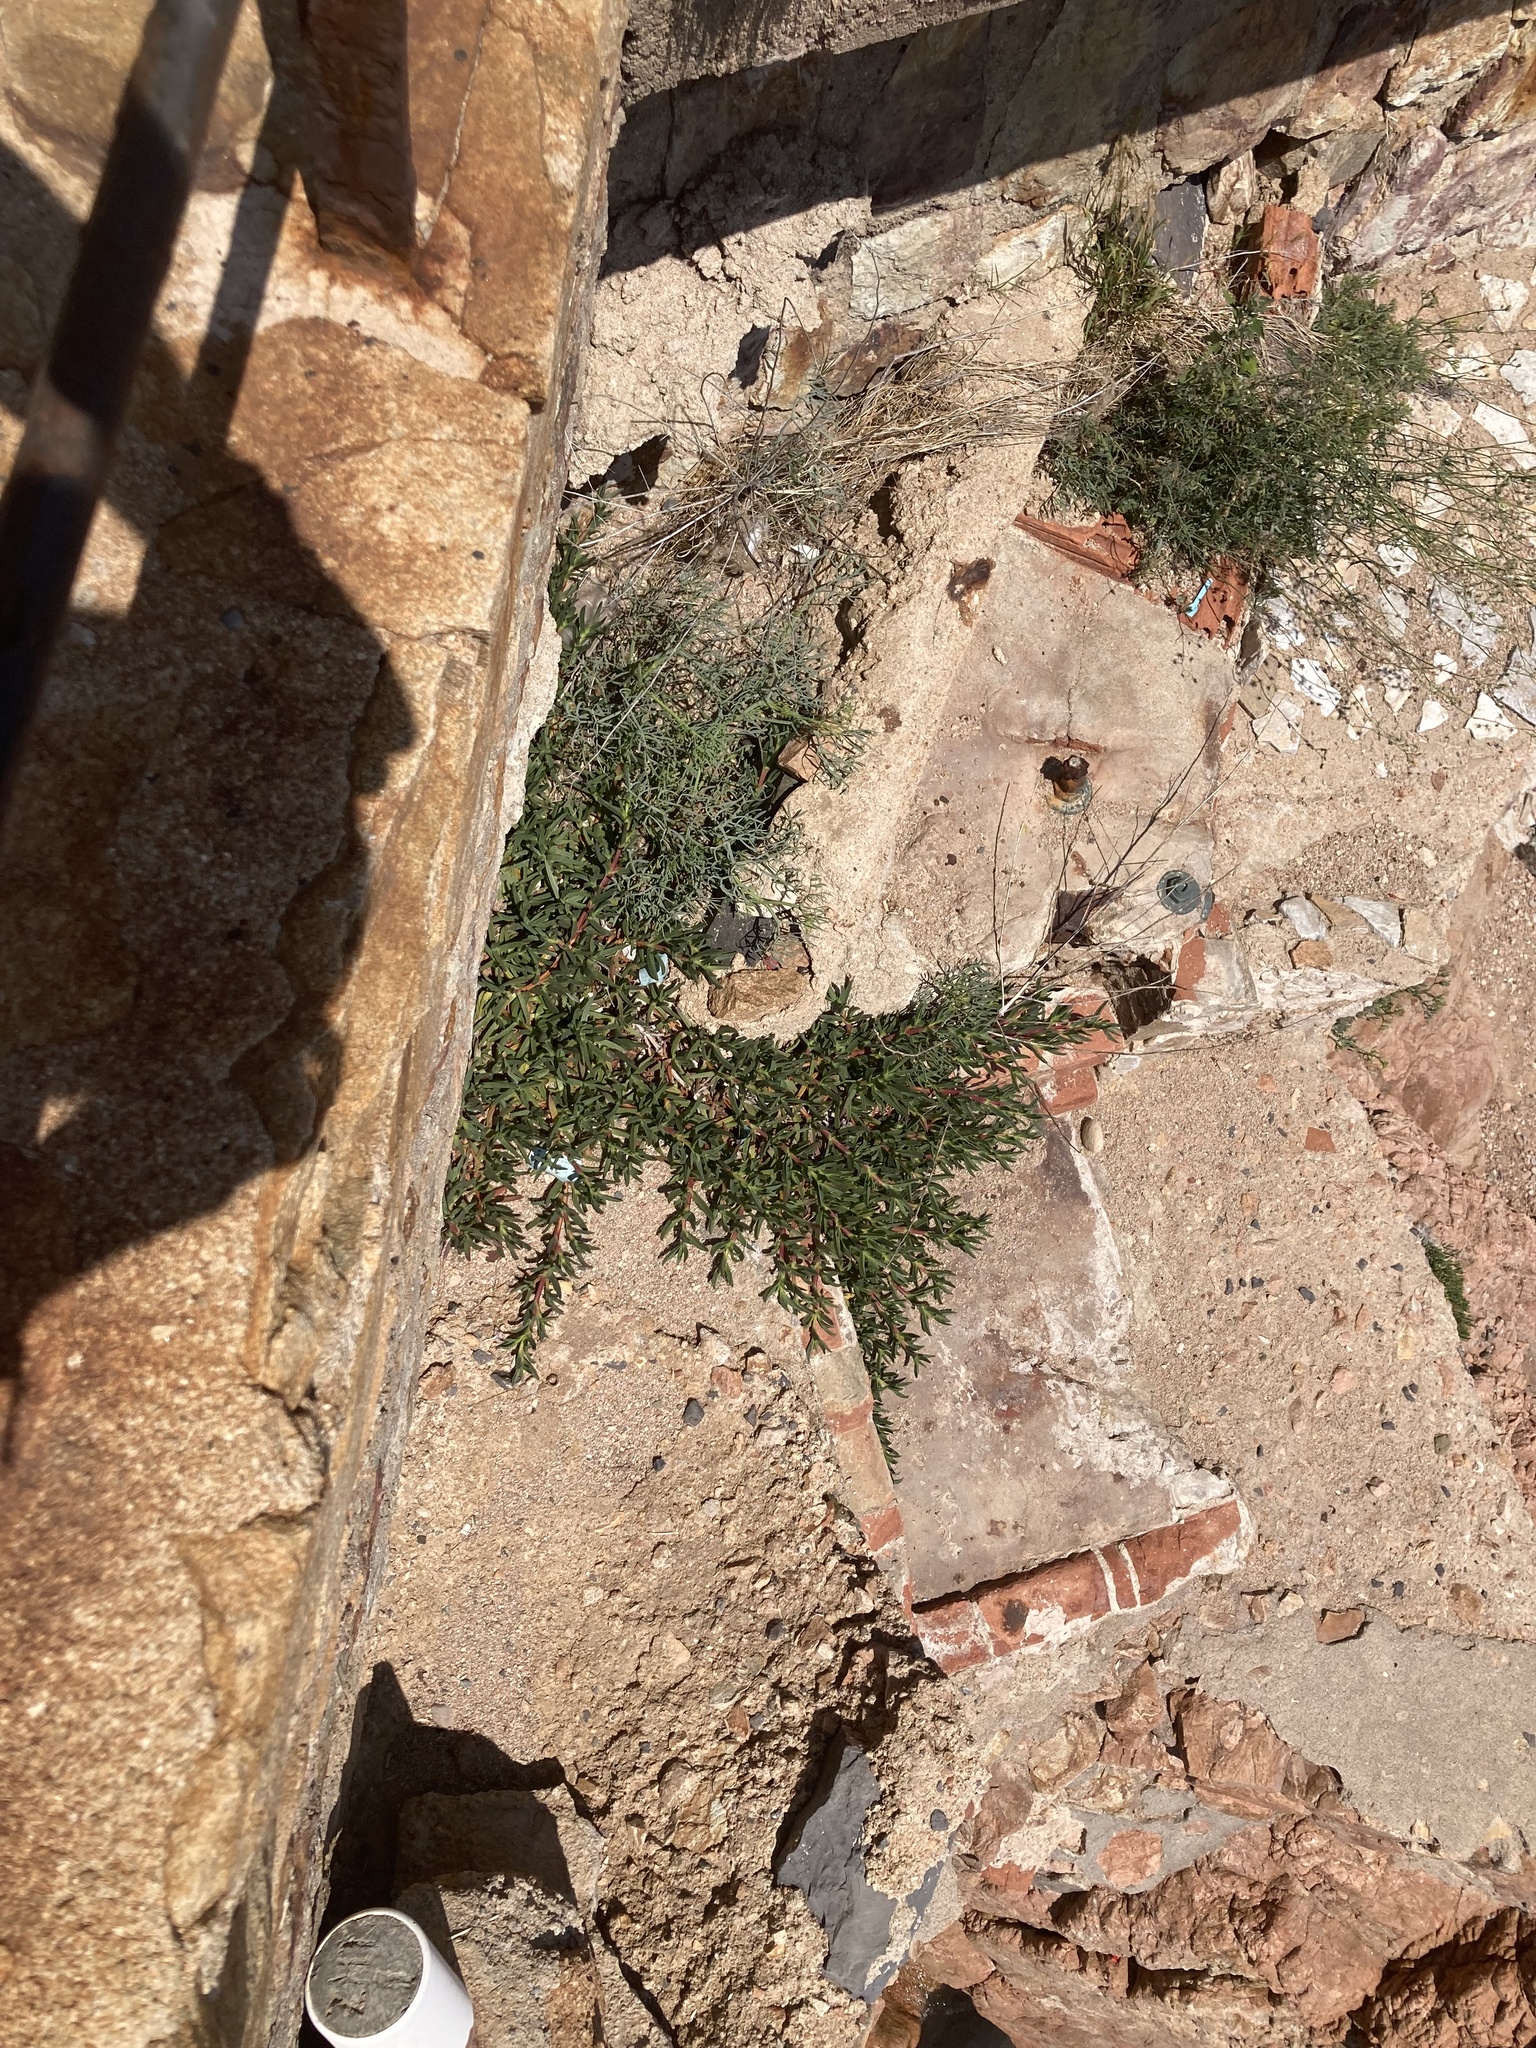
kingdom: Plantae
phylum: Tracheophyta
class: Magnoliopsida
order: Caryophyllales
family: Aizoaceae
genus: Carpobrotus
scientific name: Carpobrotus edulis
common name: Hottentot-fig
